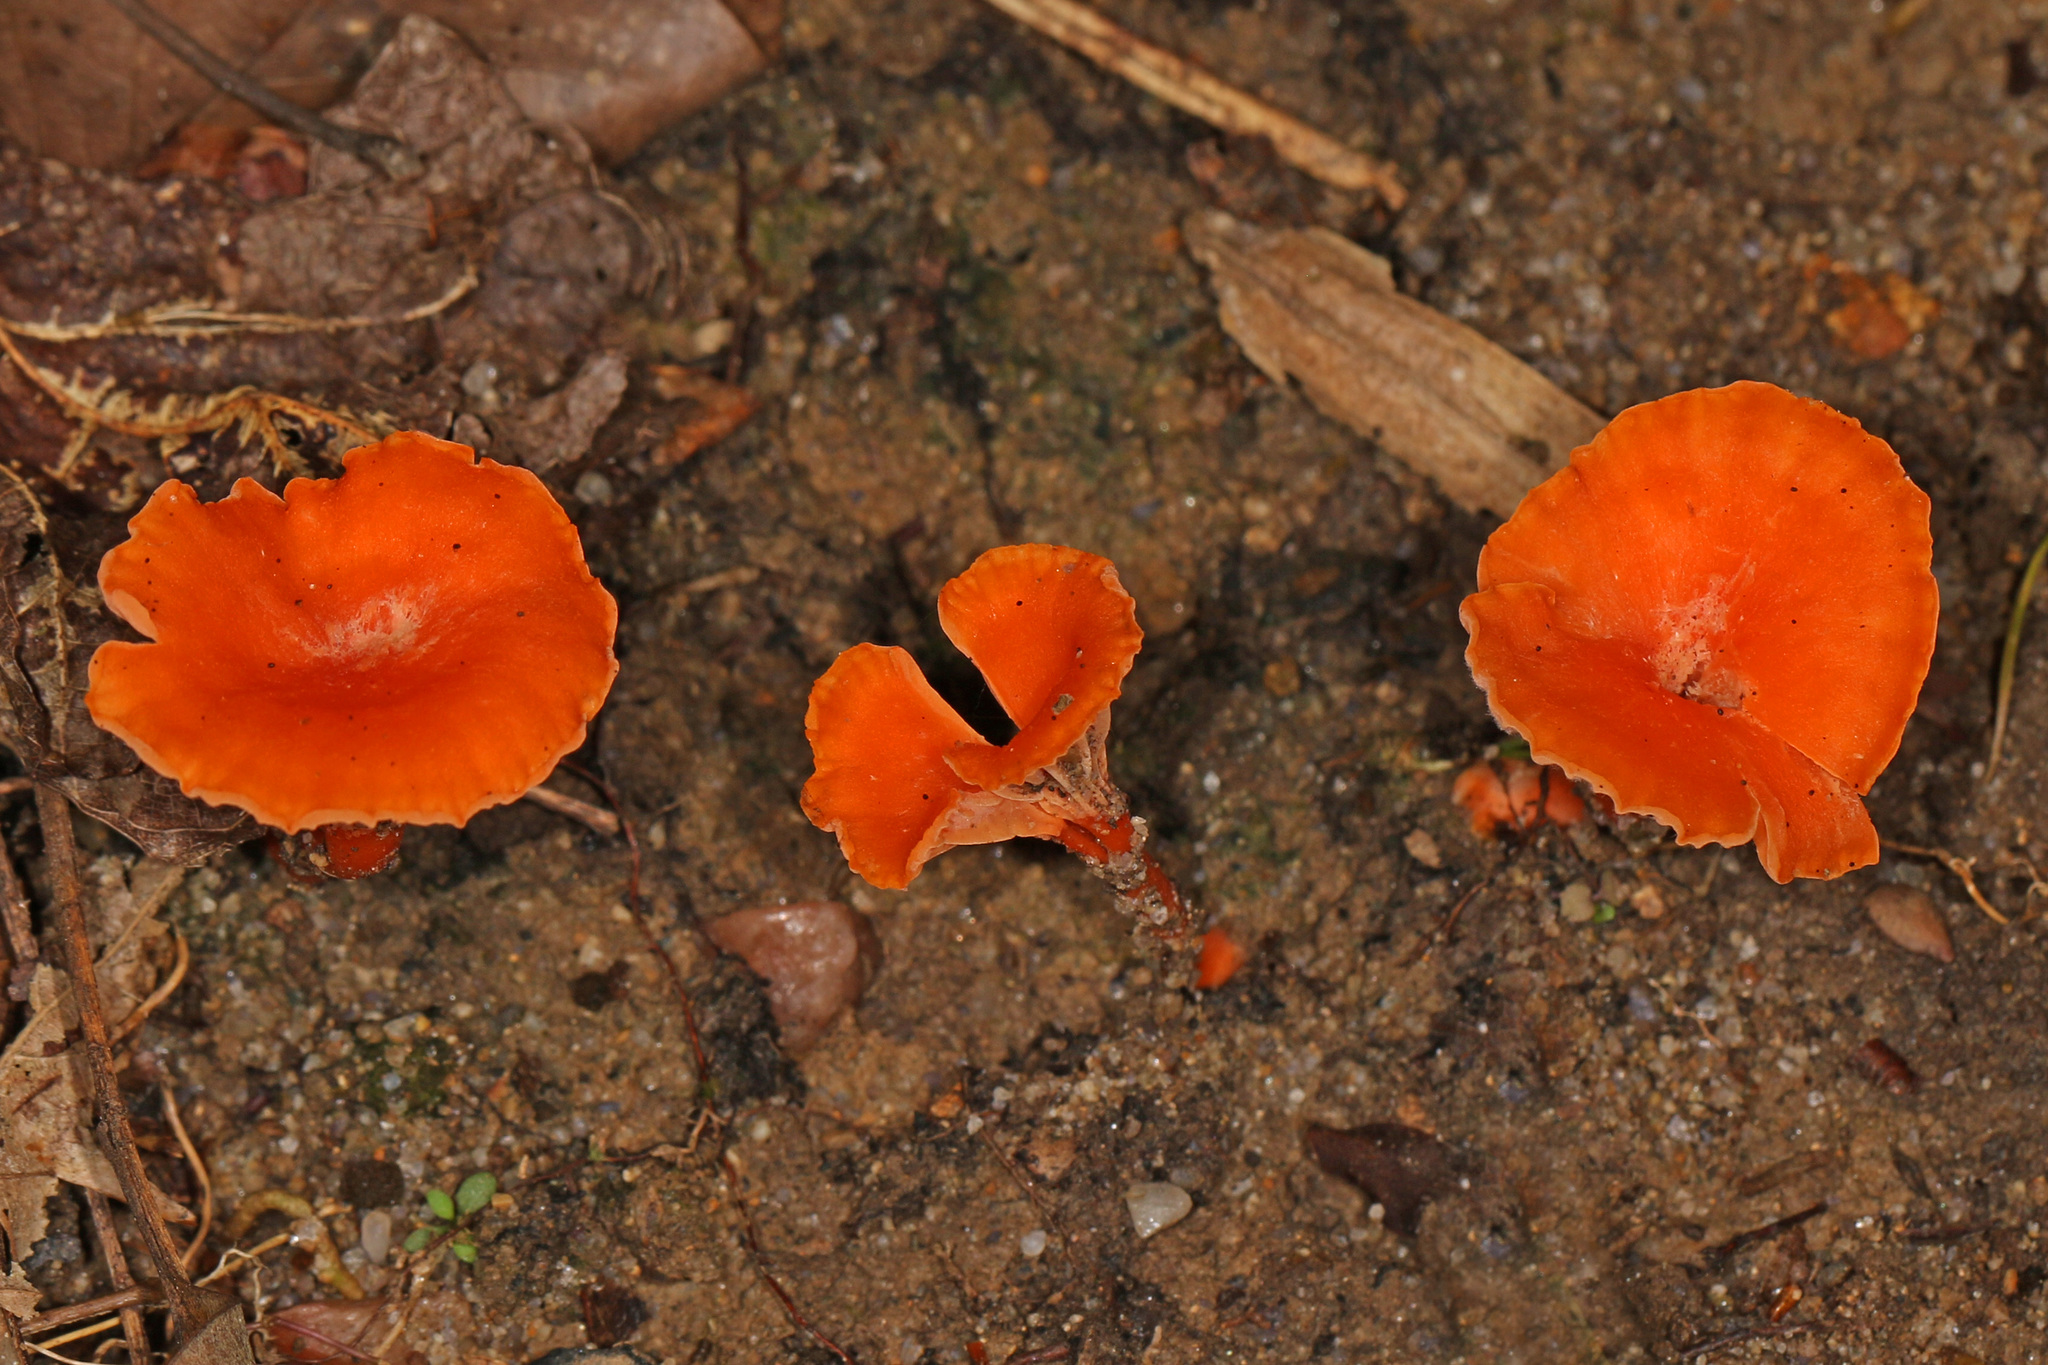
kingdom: Fungi
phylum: Basidiomycota
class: Agaricomycetes
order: Cantharellales
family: Hydnaceae
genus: Cantharellus
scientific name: Cantharellus cinnabarinus
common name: Cinnabar chanterelle
